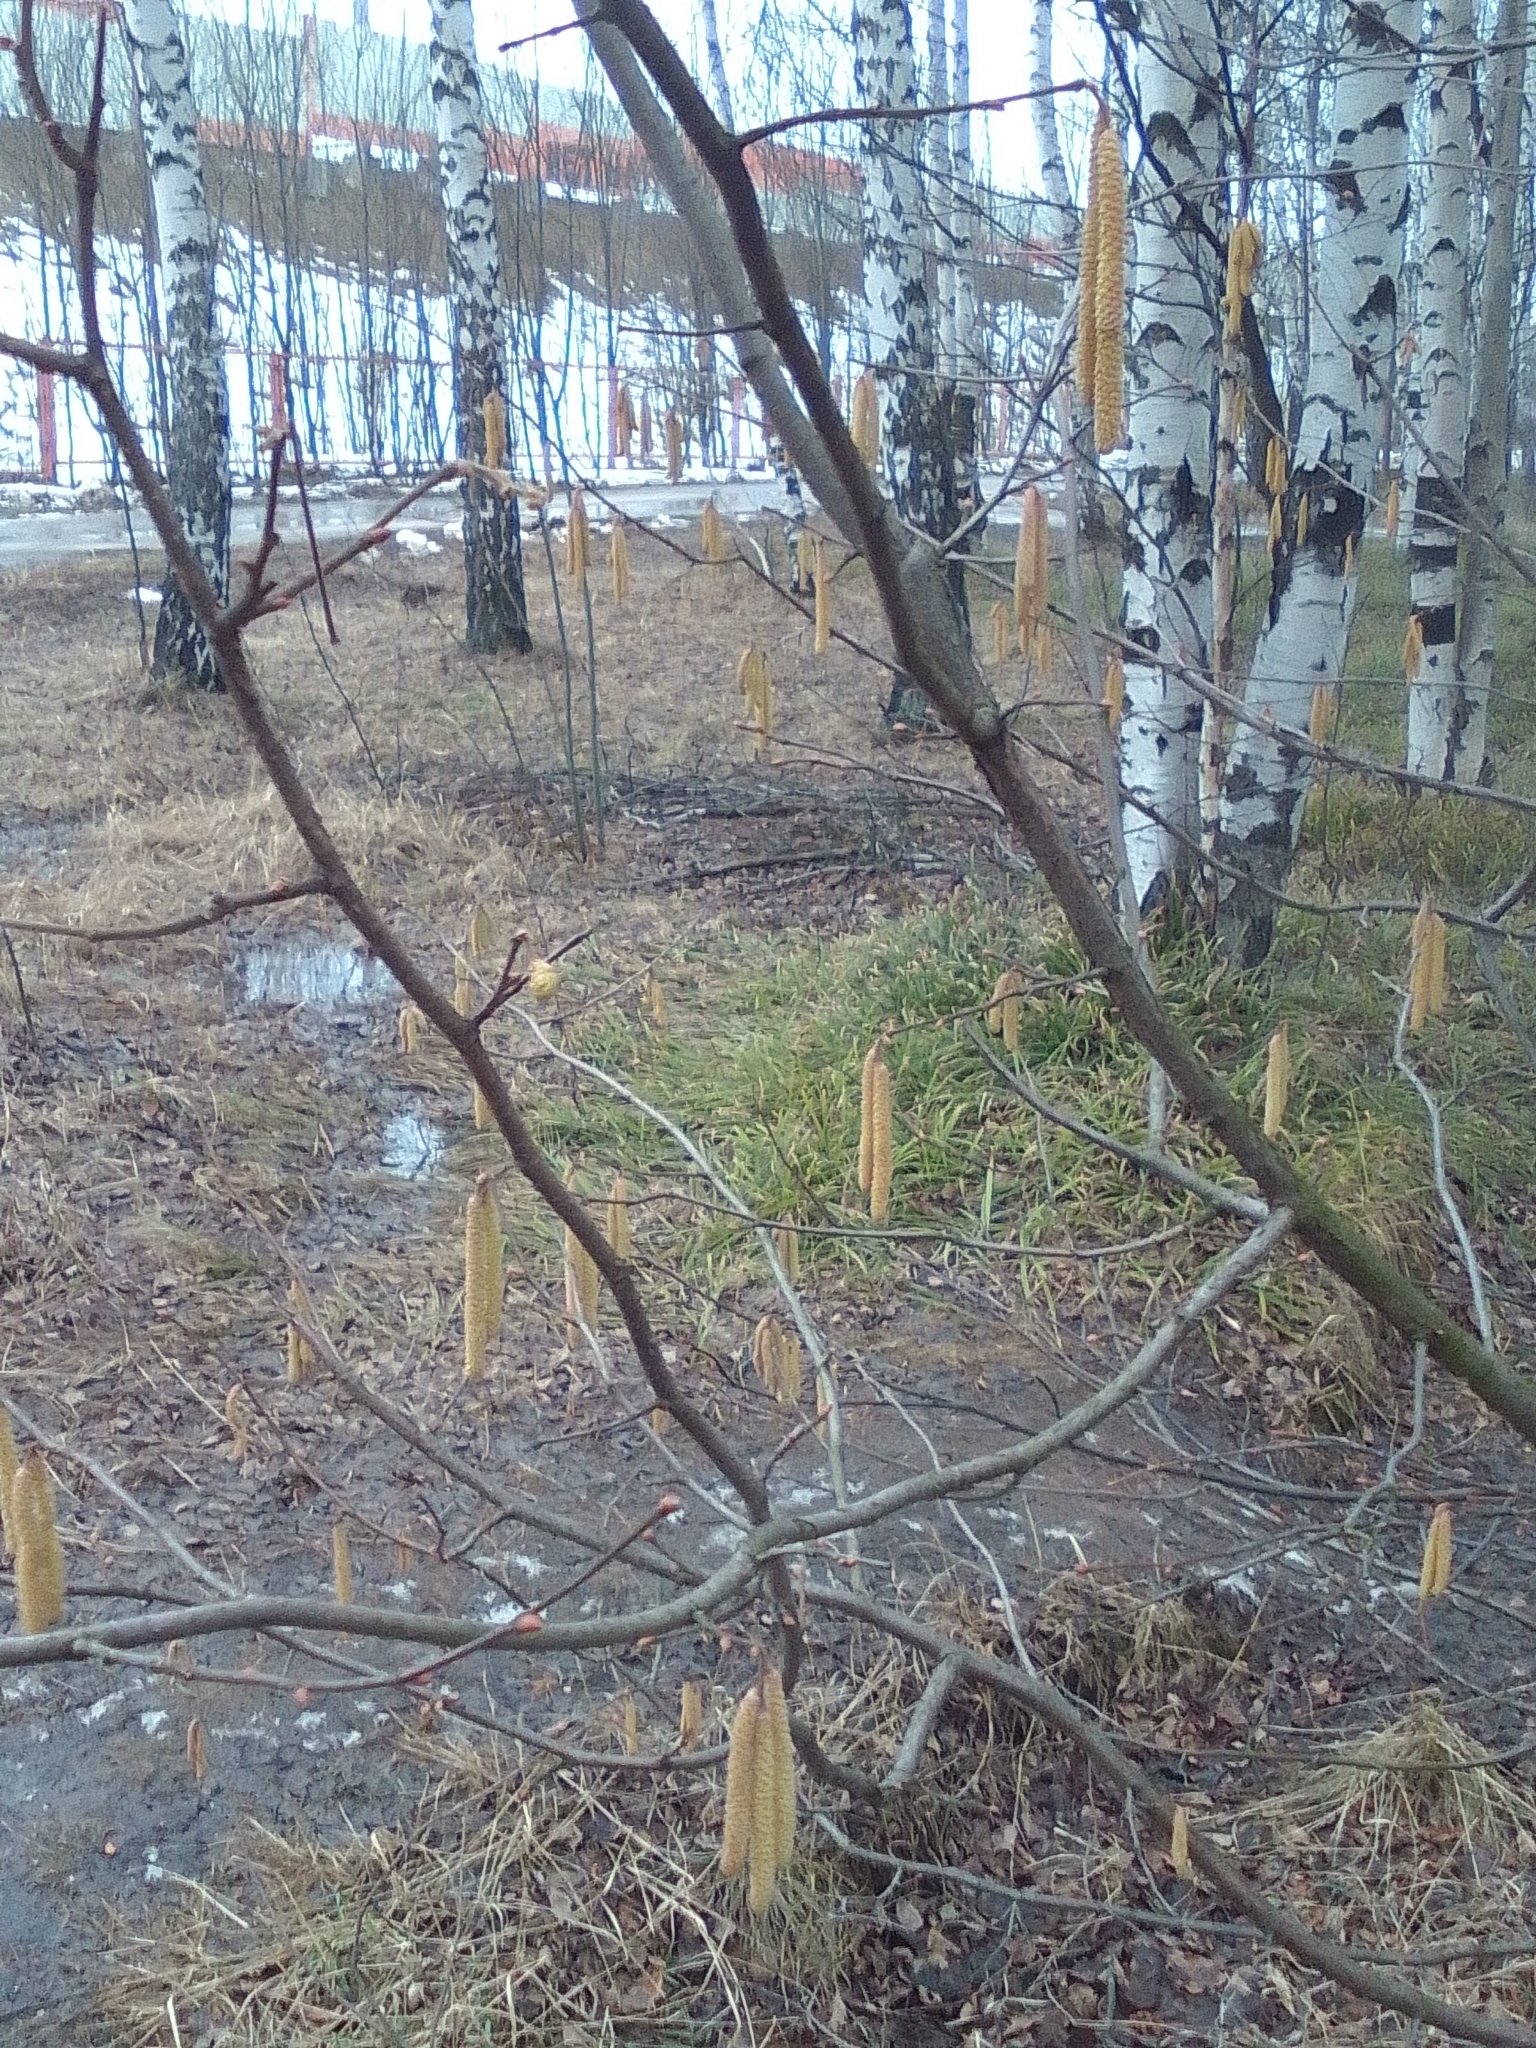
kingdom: Plantae
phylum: Tracheophyta
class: Magnoliopsida
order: Fagales
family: Betulaceae
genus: Corylus
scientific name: Corylus avellana
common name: European hazel
